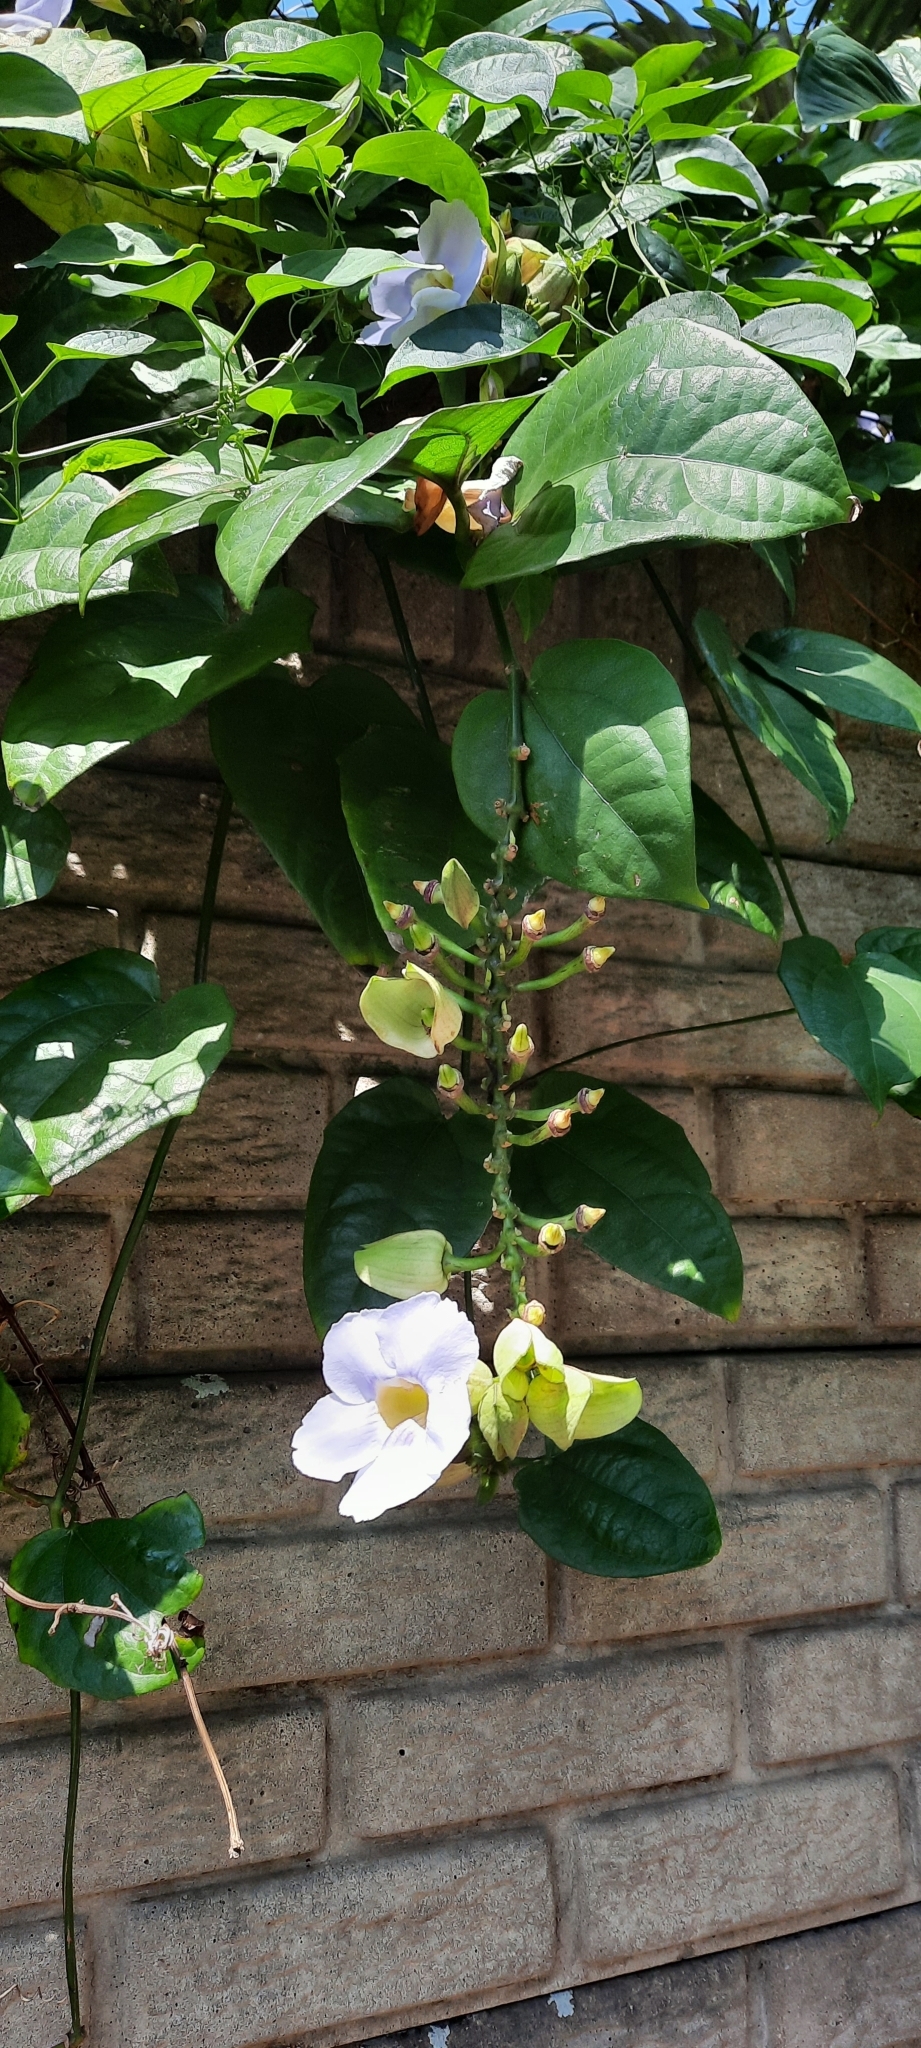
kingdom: Plantae
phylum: Tracheophyta
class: Magnoliopsida
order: Lamiales
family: Acanthaceae
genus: Thunbergia
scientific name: Thunbergia grandiflora
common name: Bengal trumpet
